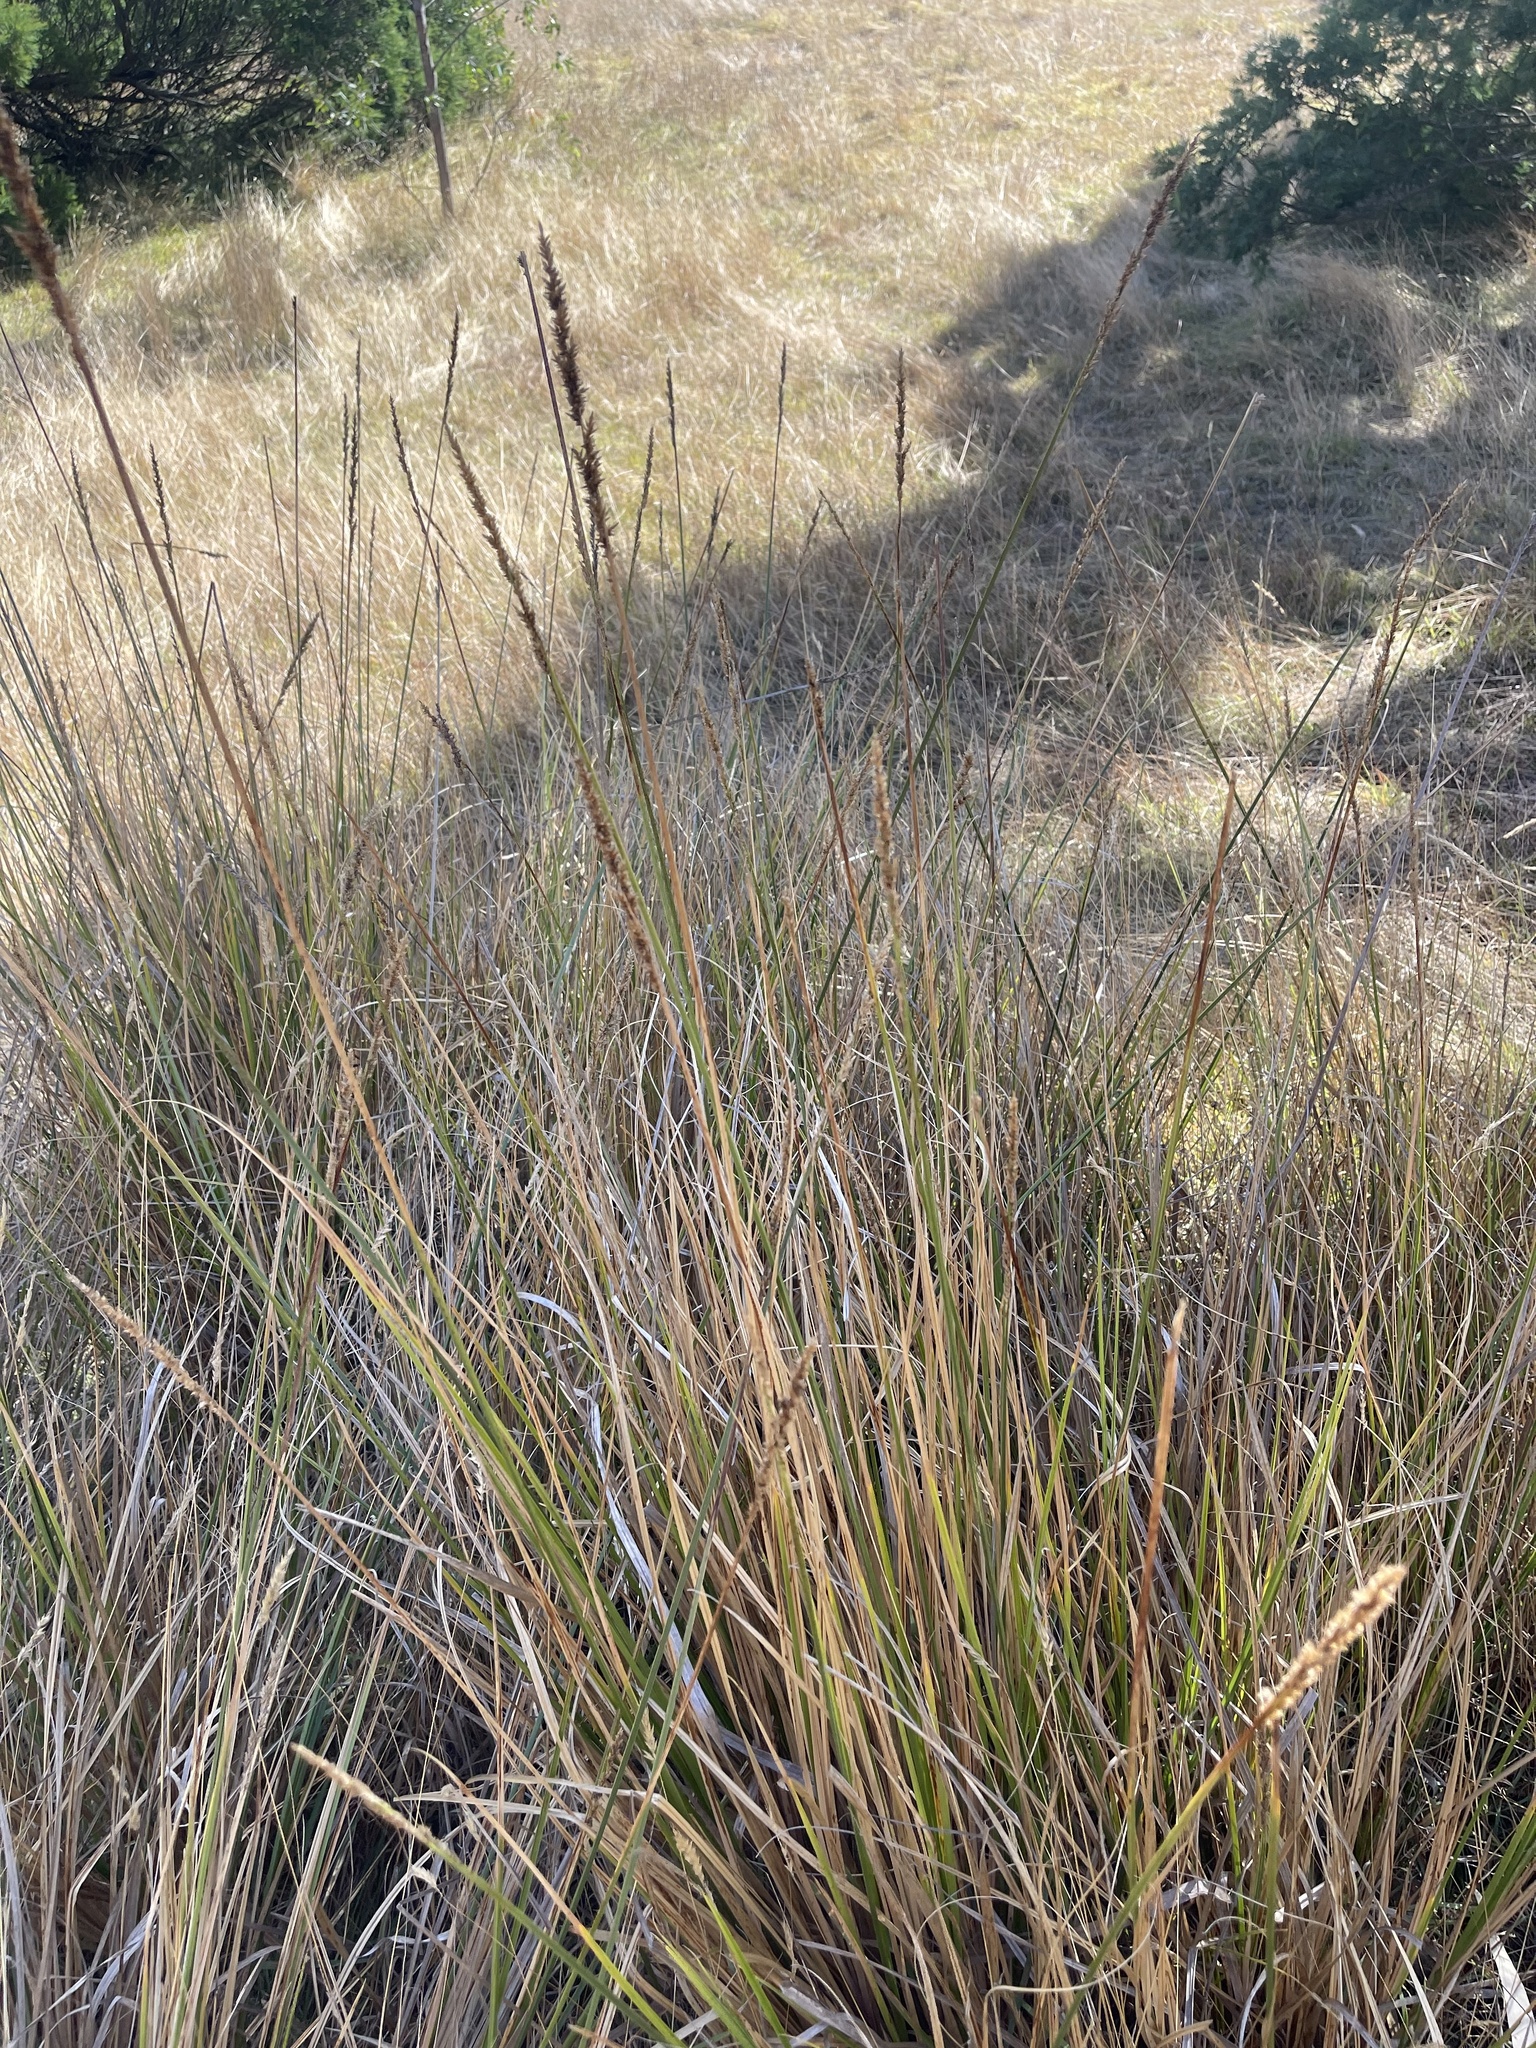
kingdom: Plantae
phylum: Tracheophyta
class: Liliopsida
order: Poales
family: Cyperaceae
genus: Carex
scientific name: Carex appressa
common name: Tussock sedge
